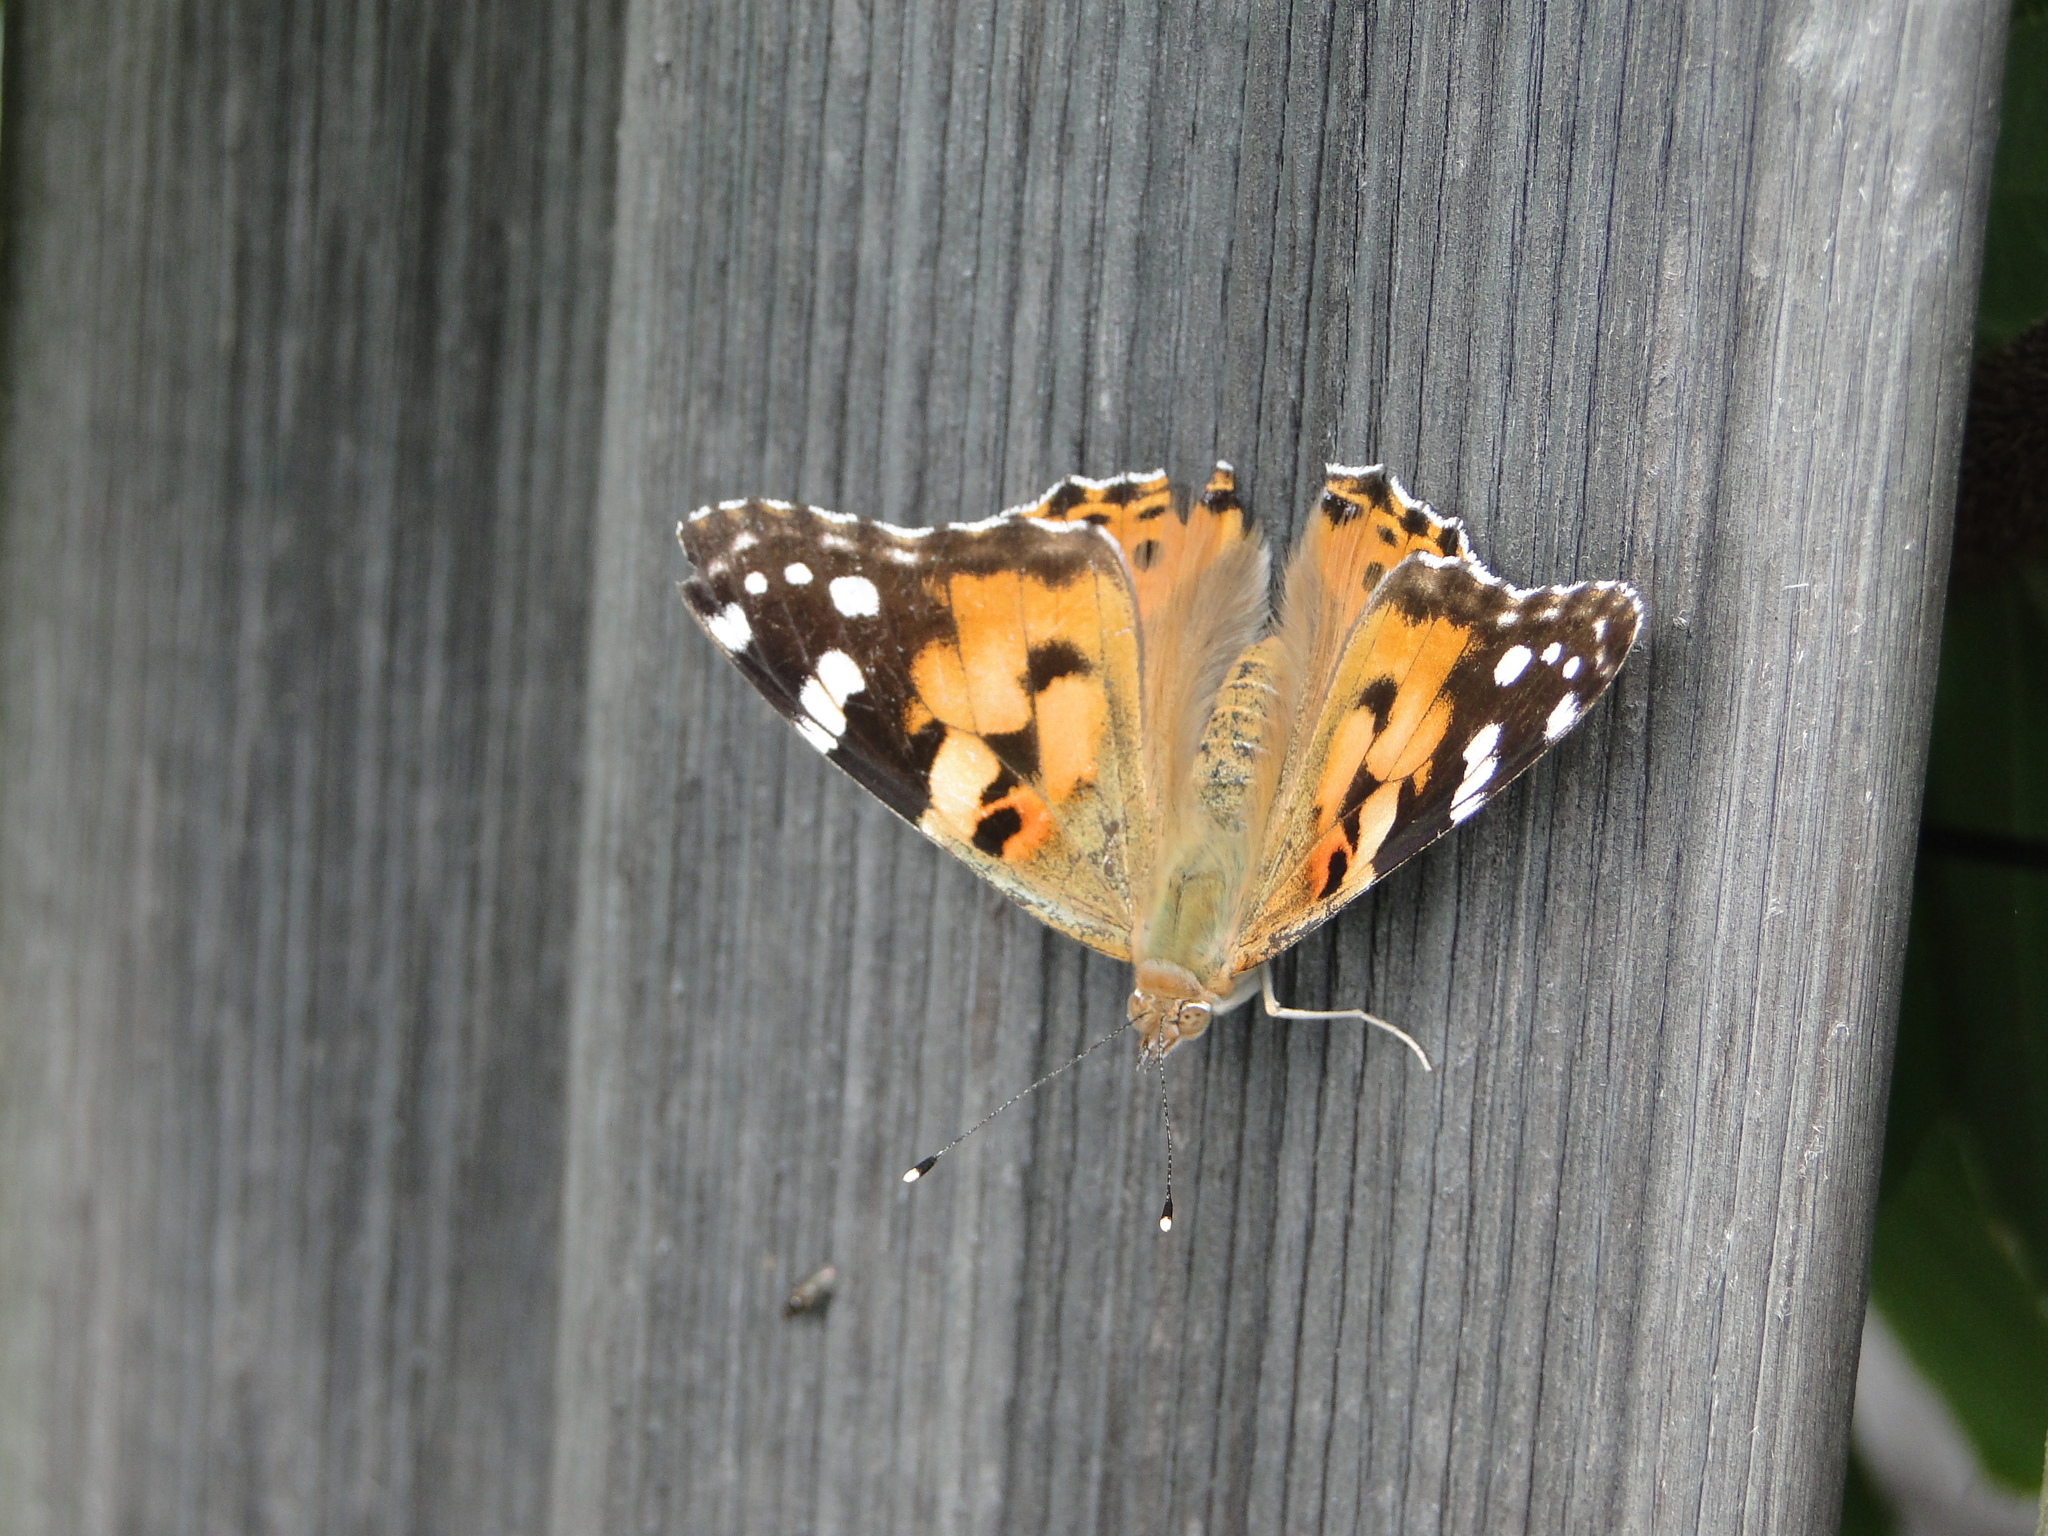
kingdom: Animalia
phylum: Arthropoda
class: Insecta
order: Lepidoptera
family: Nymphalidae
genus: Vanessa
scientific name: Vanessa cardui
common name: Painted lady
